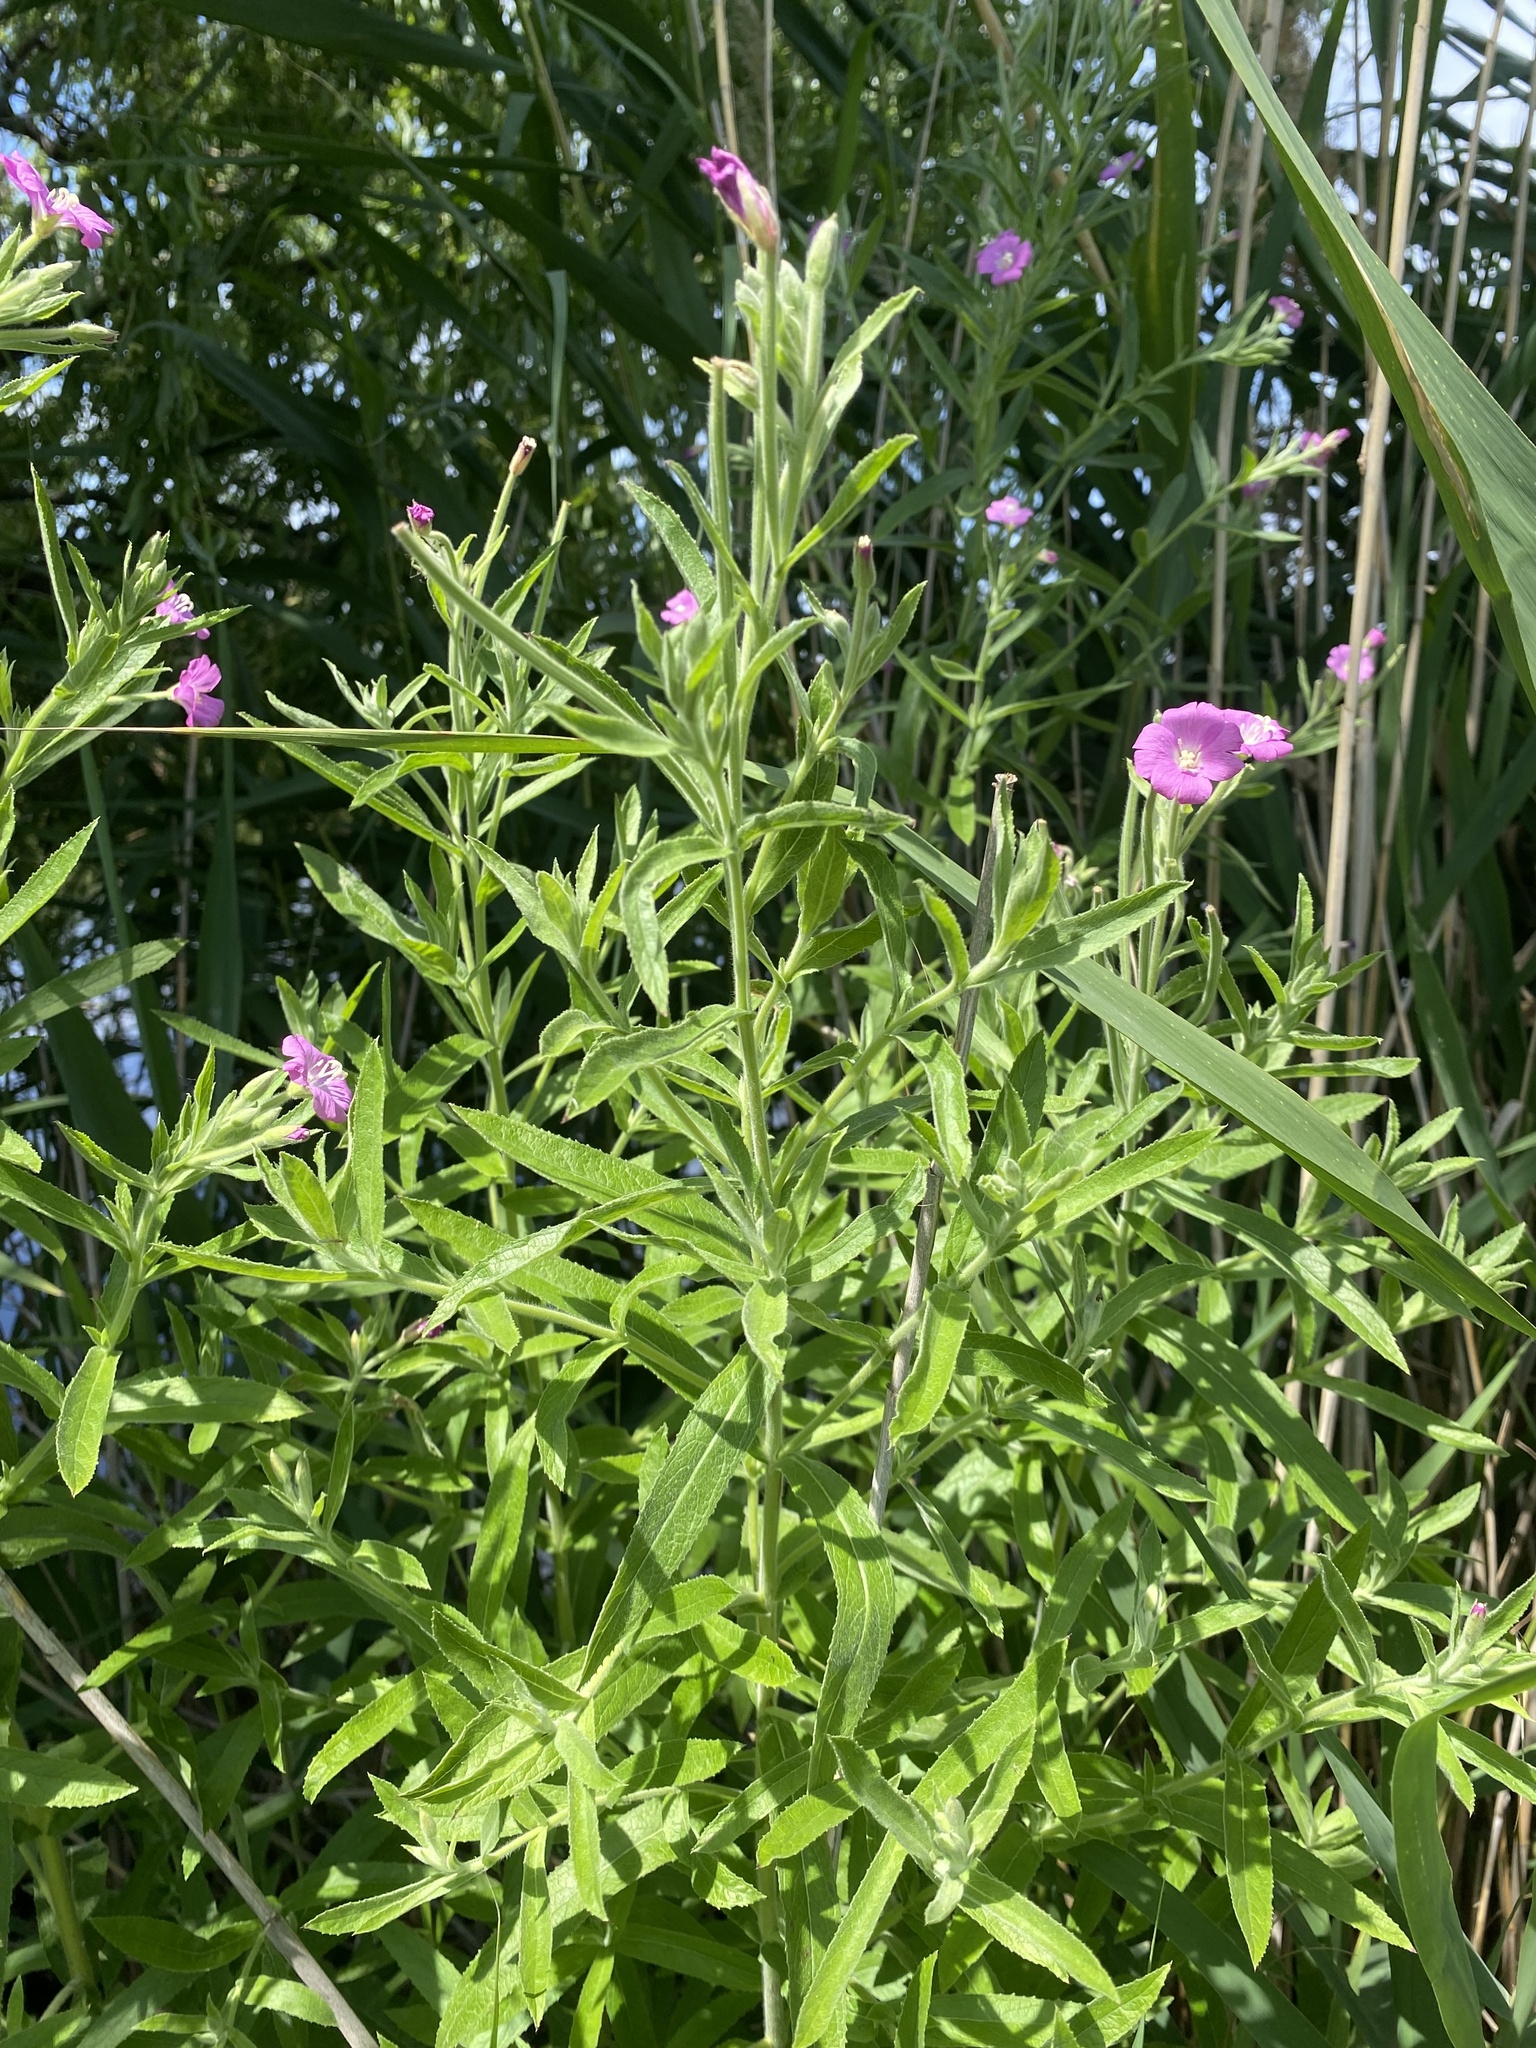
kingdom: Plantae
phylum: Tracheophyta
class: Magnoliopsida
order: Myrtales
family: Onagraceae
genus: Epilobium
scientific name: Epilobium hirsutum
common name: Great willowherb
